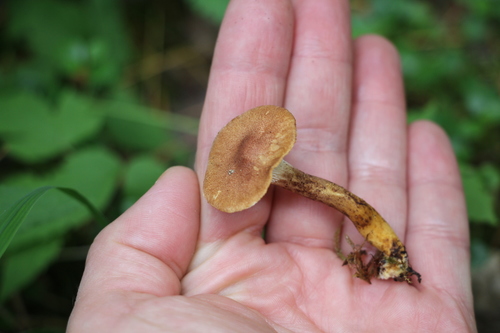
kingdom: Fungi
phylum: Basidiomycota
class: Agaricomycetes
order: Gloeophyllales
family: Gloeophyllaceae
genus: Neolentinus
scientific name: Neolentinus cyathiformis
